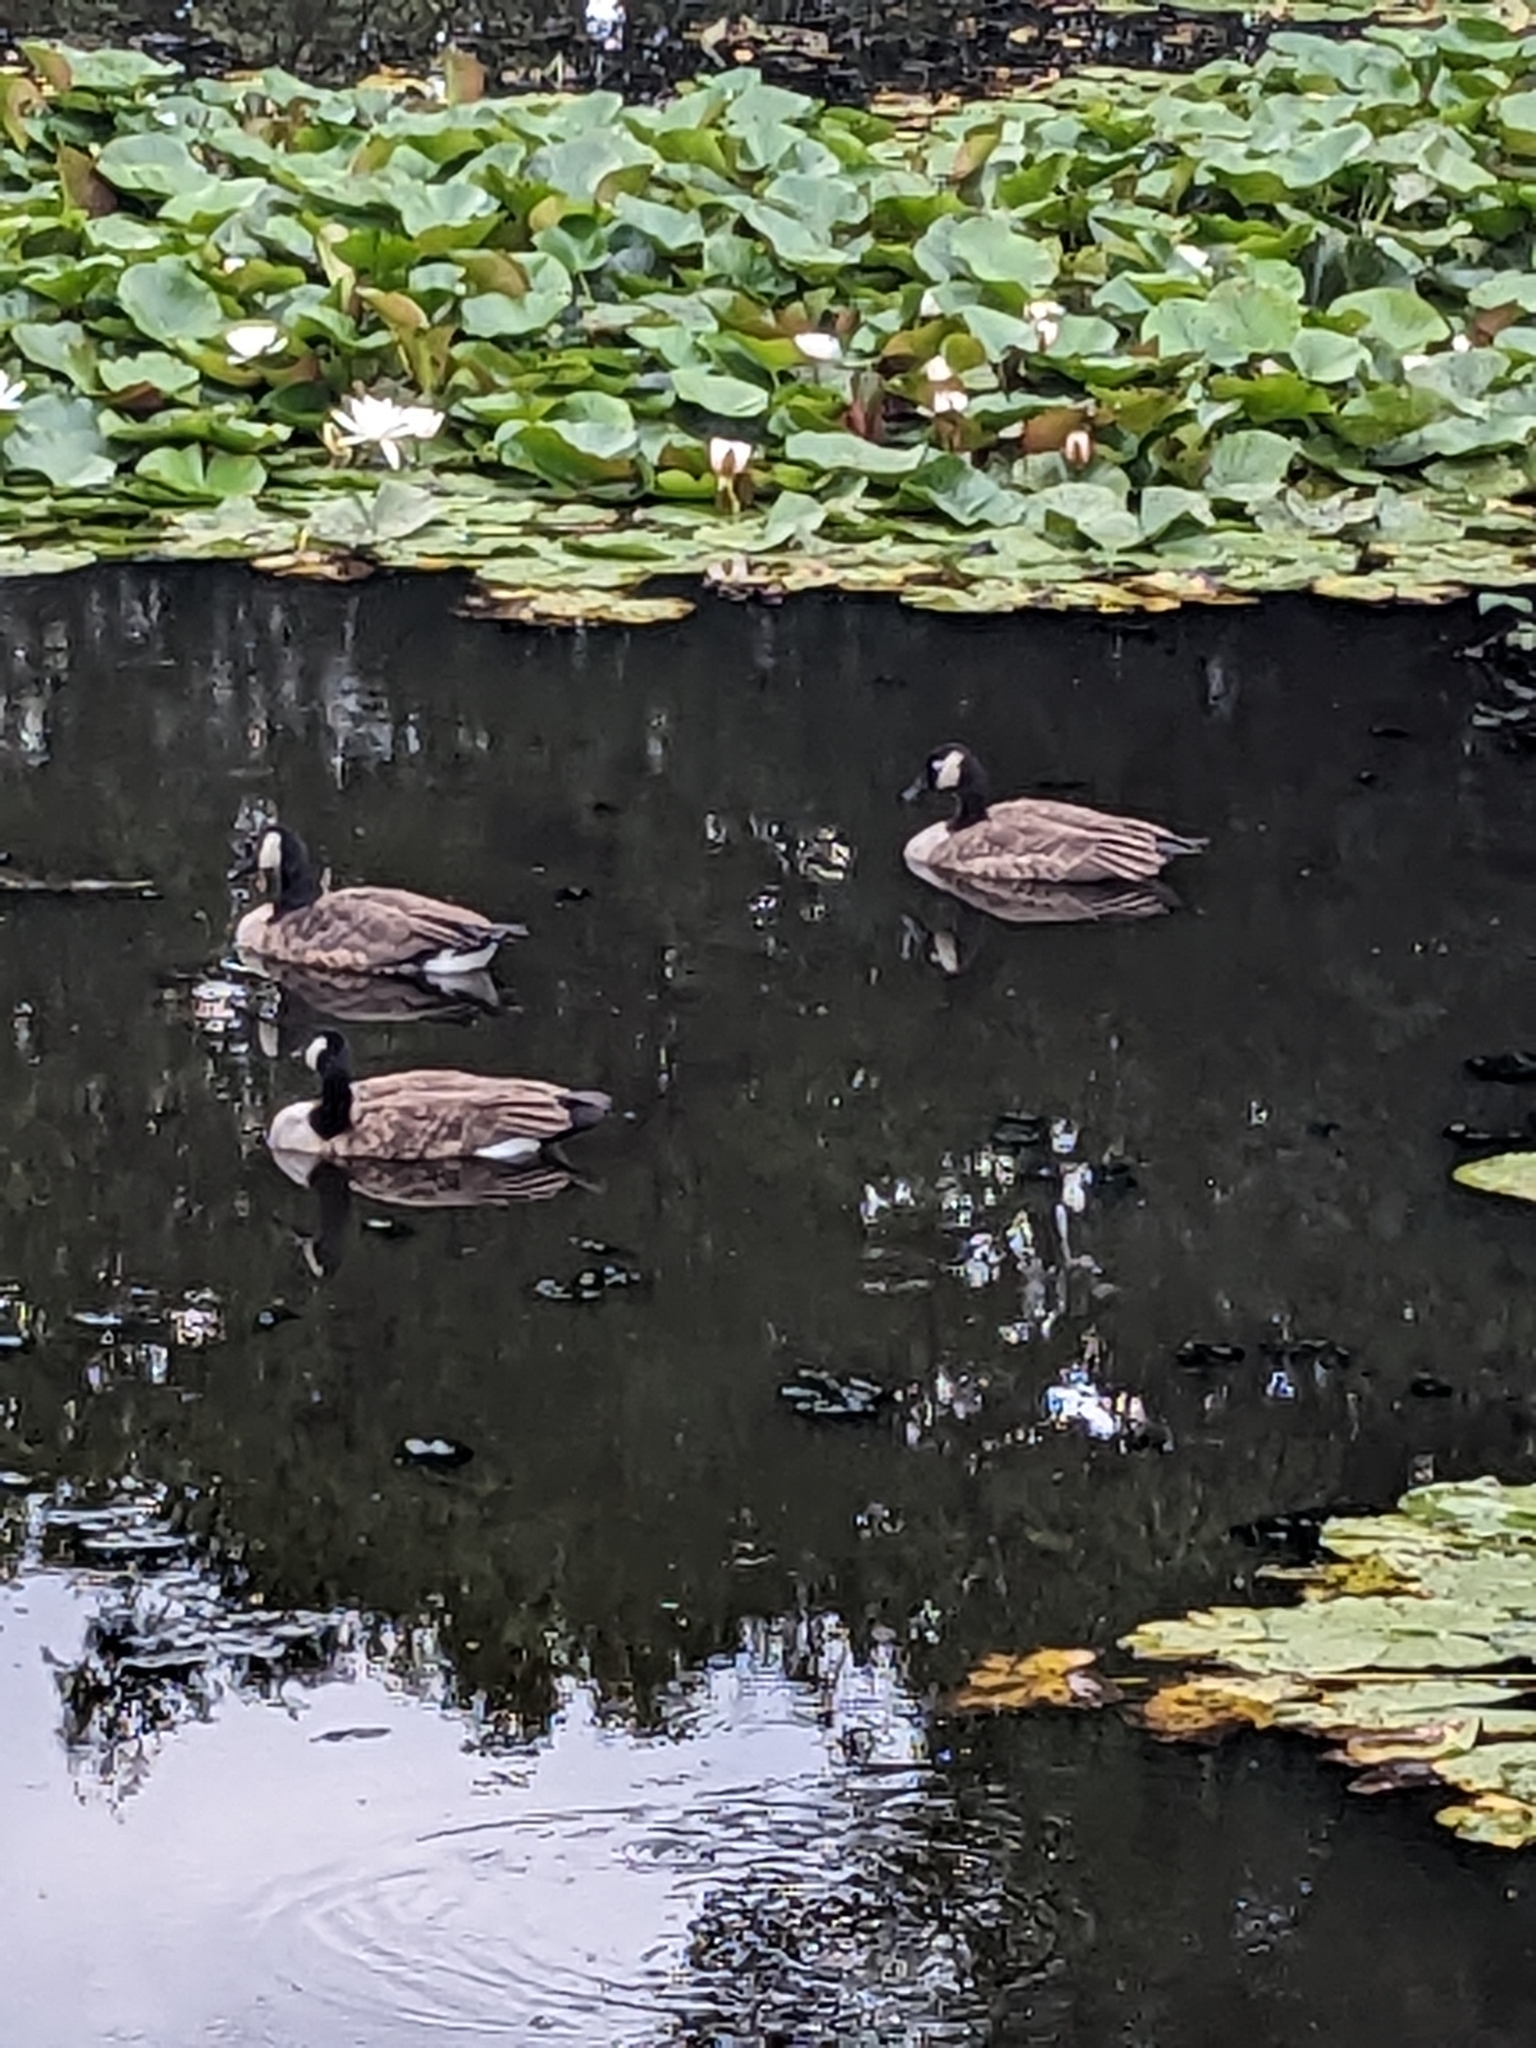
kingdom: Animalia
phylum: Chordata
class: Aves
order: Anseriformes
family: Anatidae
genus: Branta
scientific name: Branta canadensis
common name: Canada goose
